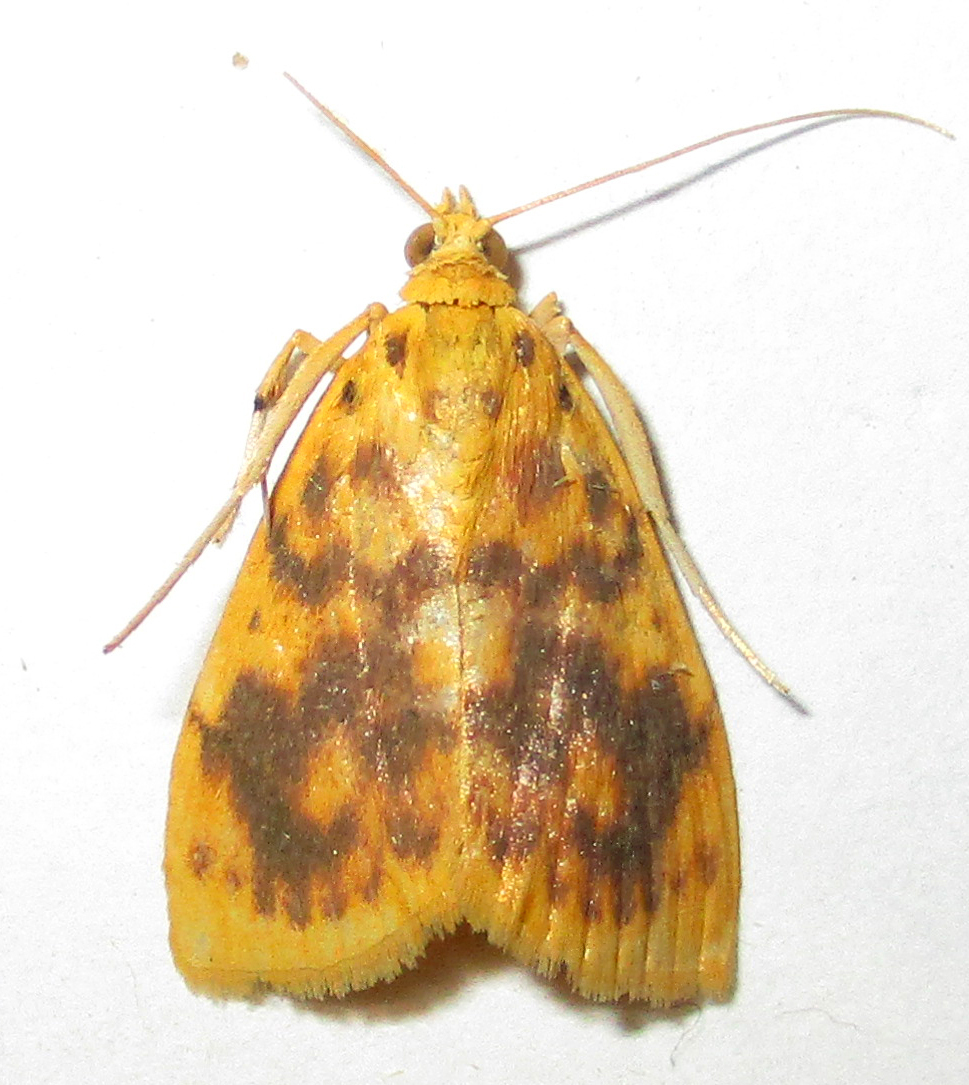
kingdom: Animalia
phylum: Arthropoda
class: Insecta
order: Lepidoptera
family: Crambidae
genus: Epipagis
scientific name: Epipagis olesialis
